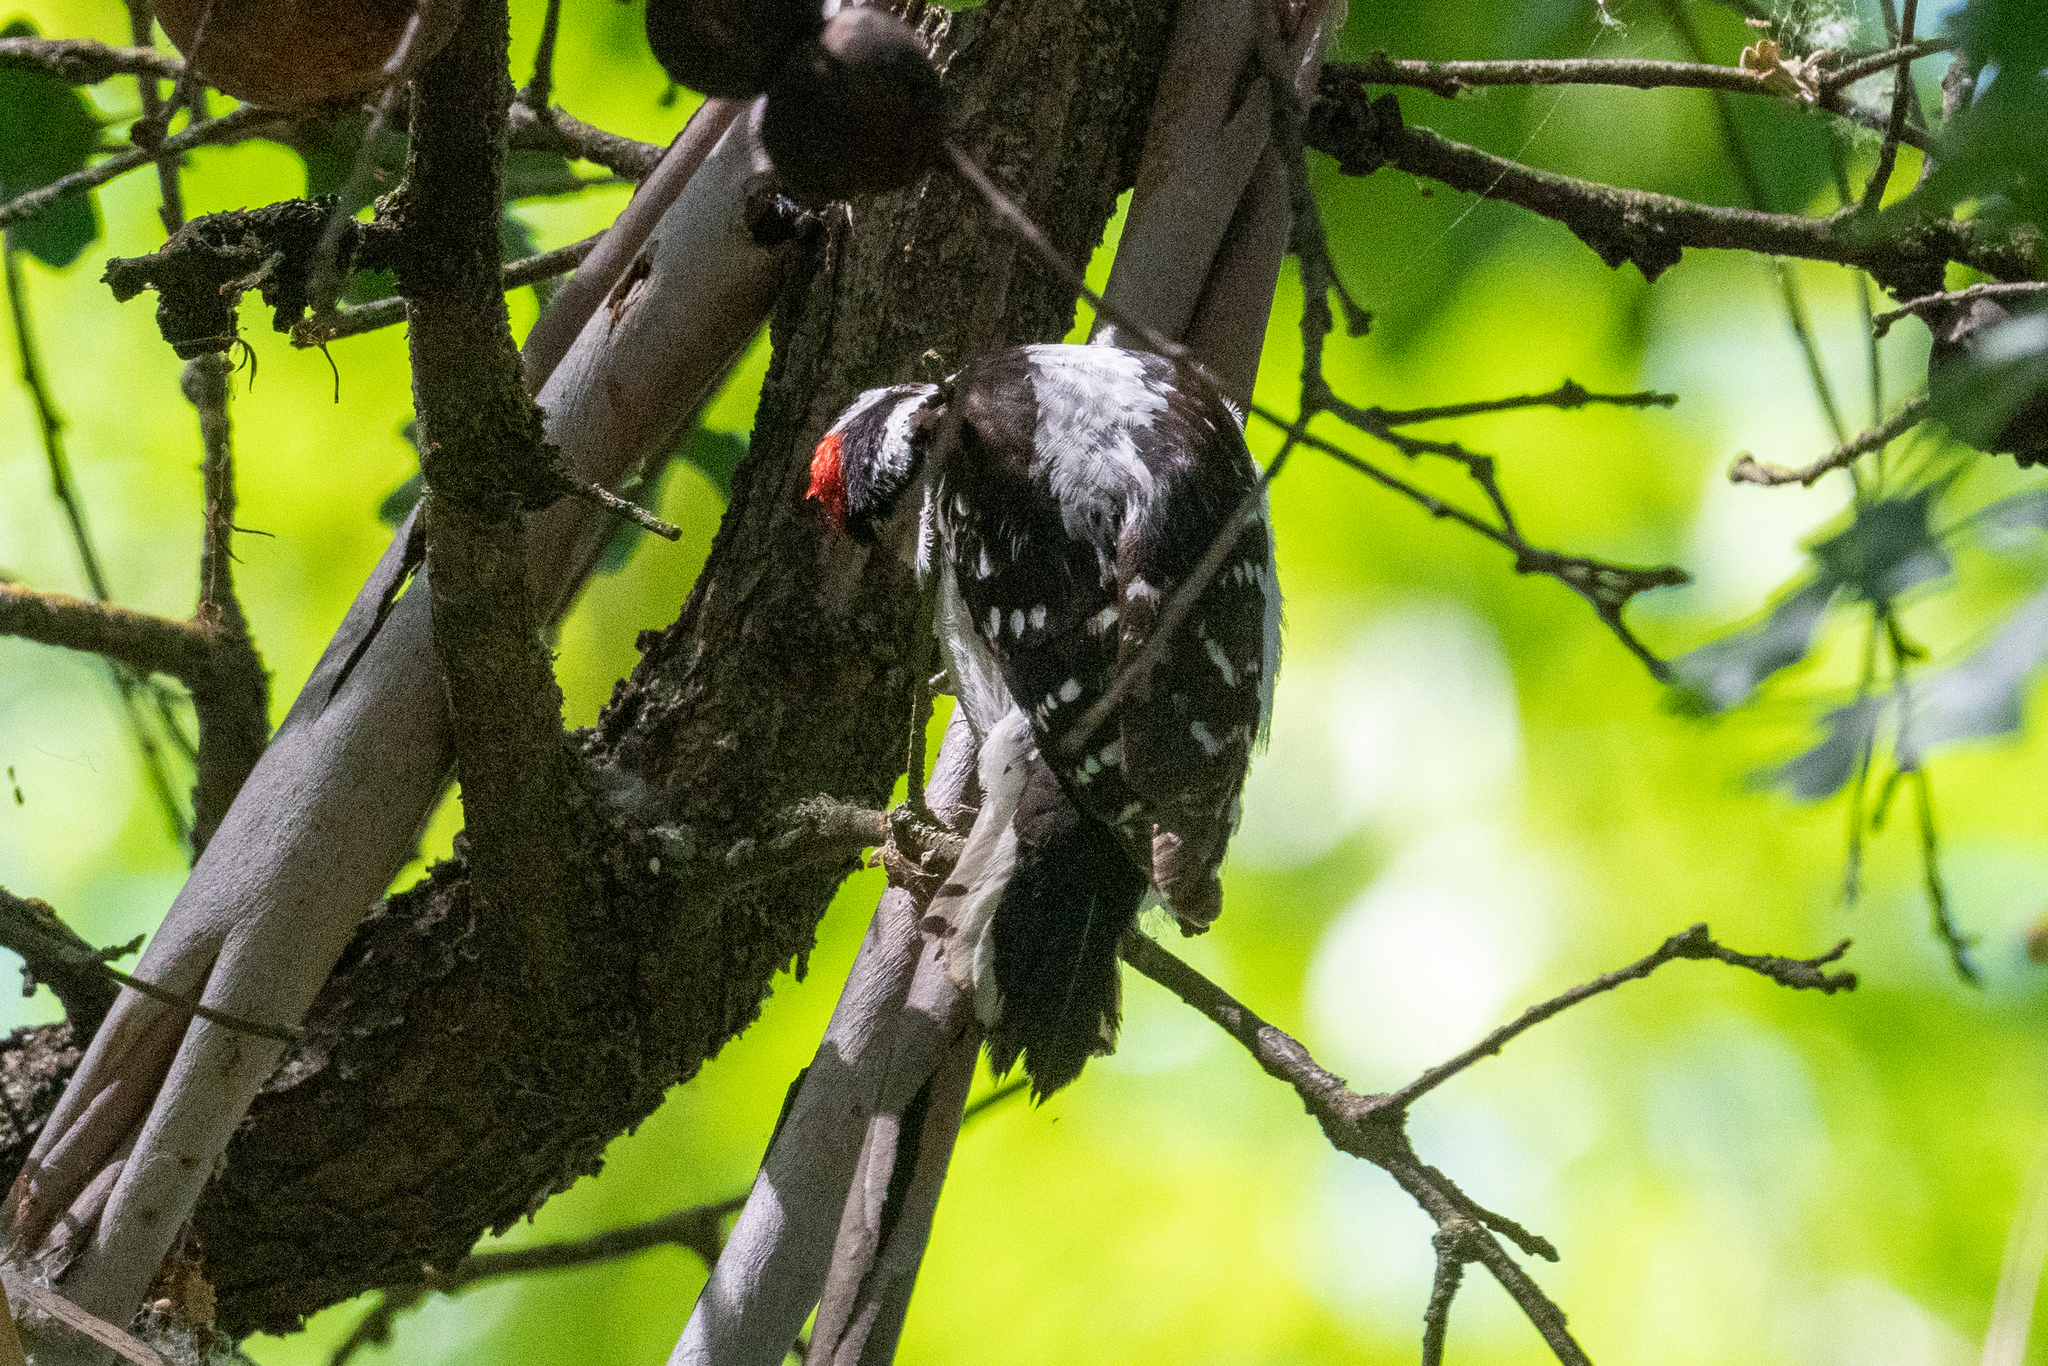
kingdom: Animalia
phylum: Chordata
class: Aves
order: Piciformes
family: Picidae
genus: Dryobates
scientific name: Dryobates pubescens
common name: Downy woodpecker
